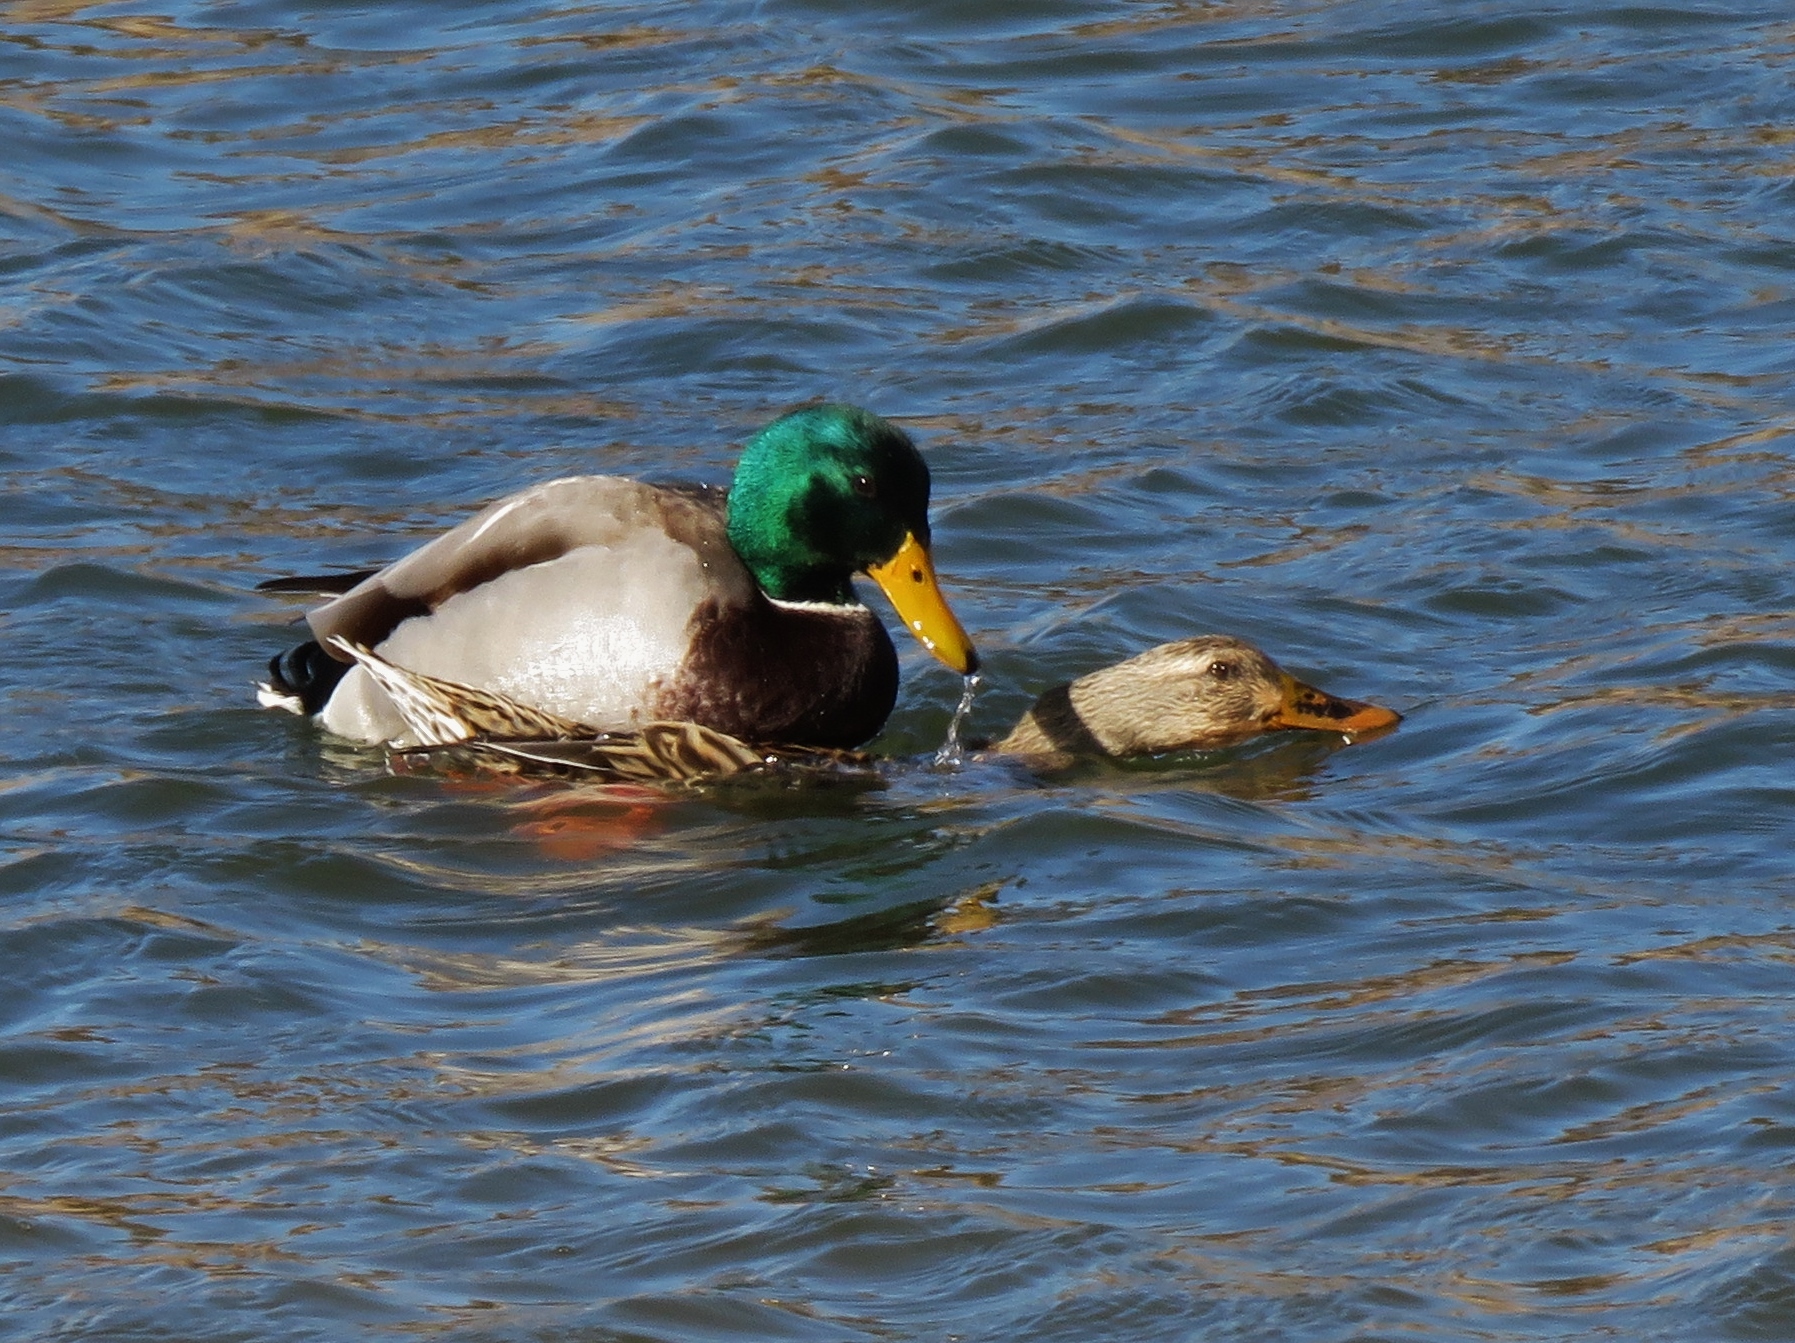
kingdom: Animalia
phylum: Chordata
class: Aves
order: Anseriformes
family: Anatidae
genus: Anas
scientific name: Anas platyrhynchos
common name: Mallard
